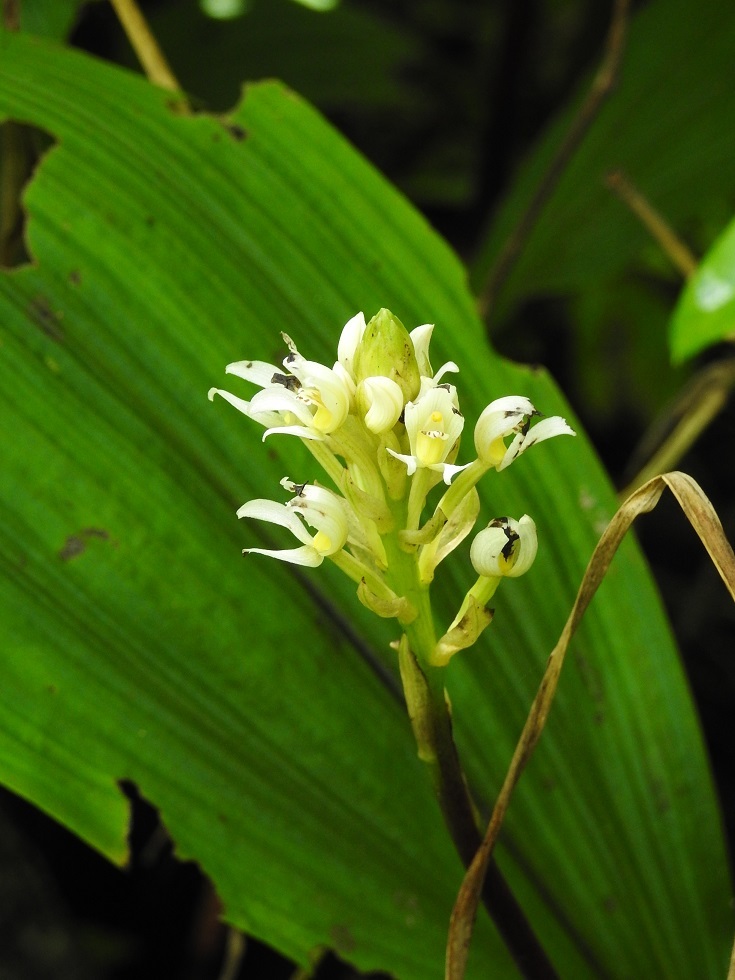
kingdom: Plantae
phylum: Tracheophyta
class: Liliopsida
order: Asparagales
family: Orchidaceae
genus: Govenia
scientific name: Govenia alba
